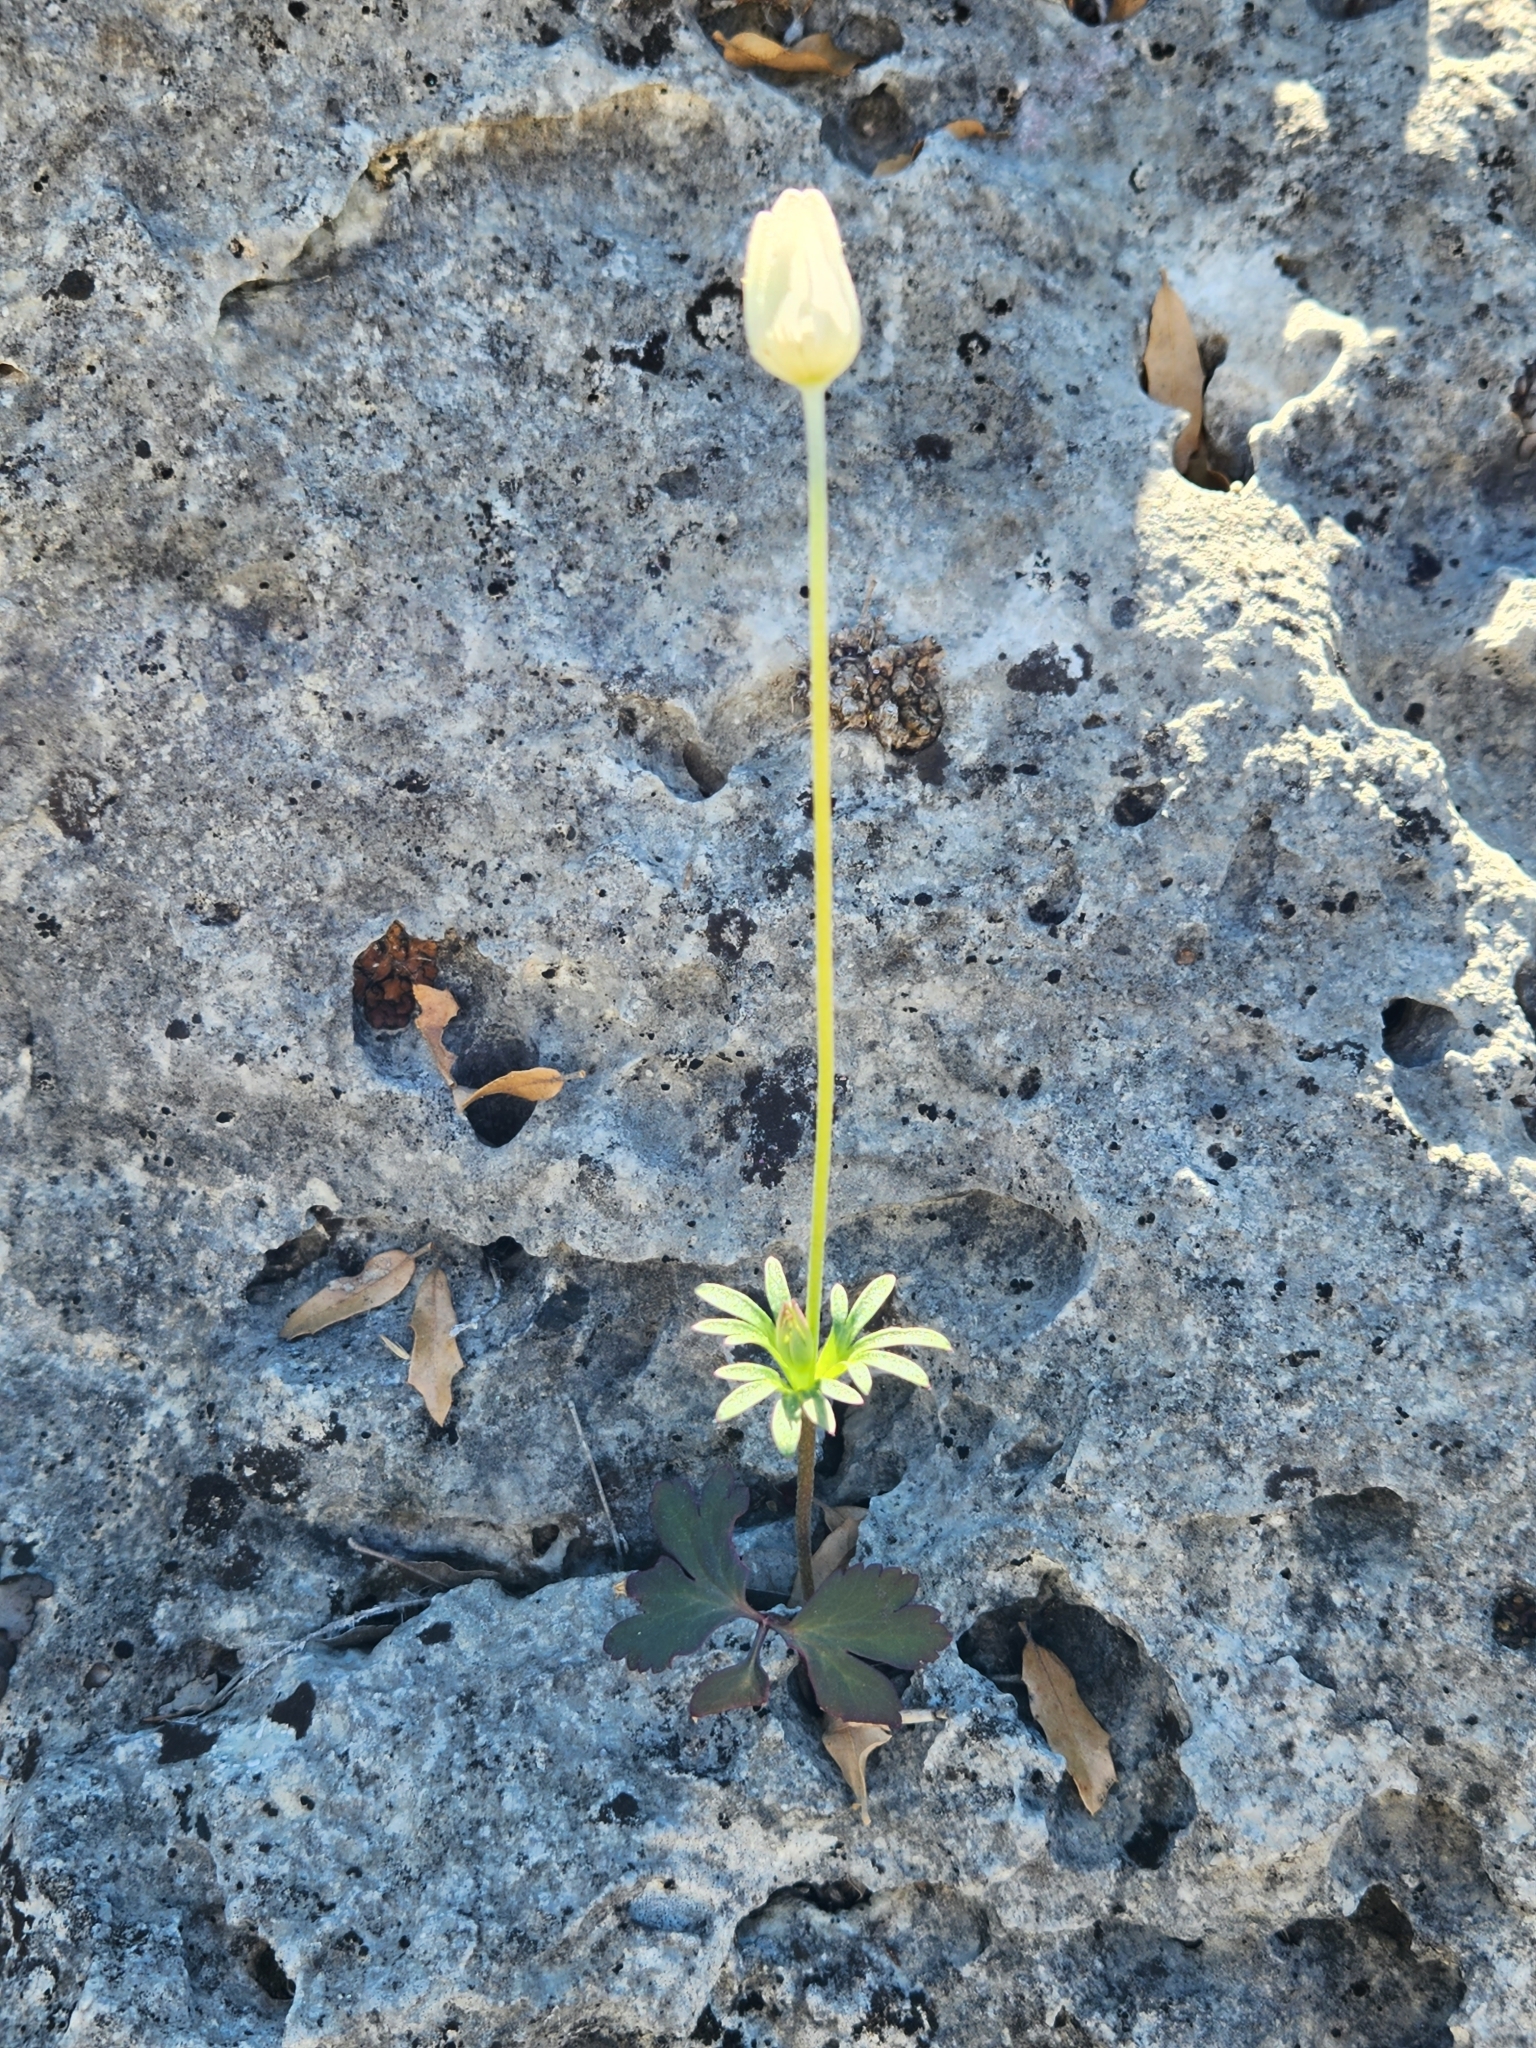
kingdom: Plantae
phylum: Tracheophyta
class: Magnoliopsida
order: Ranunculales
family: Ranunculaceae
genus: Anemone
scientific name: Anemone edwardsiana
